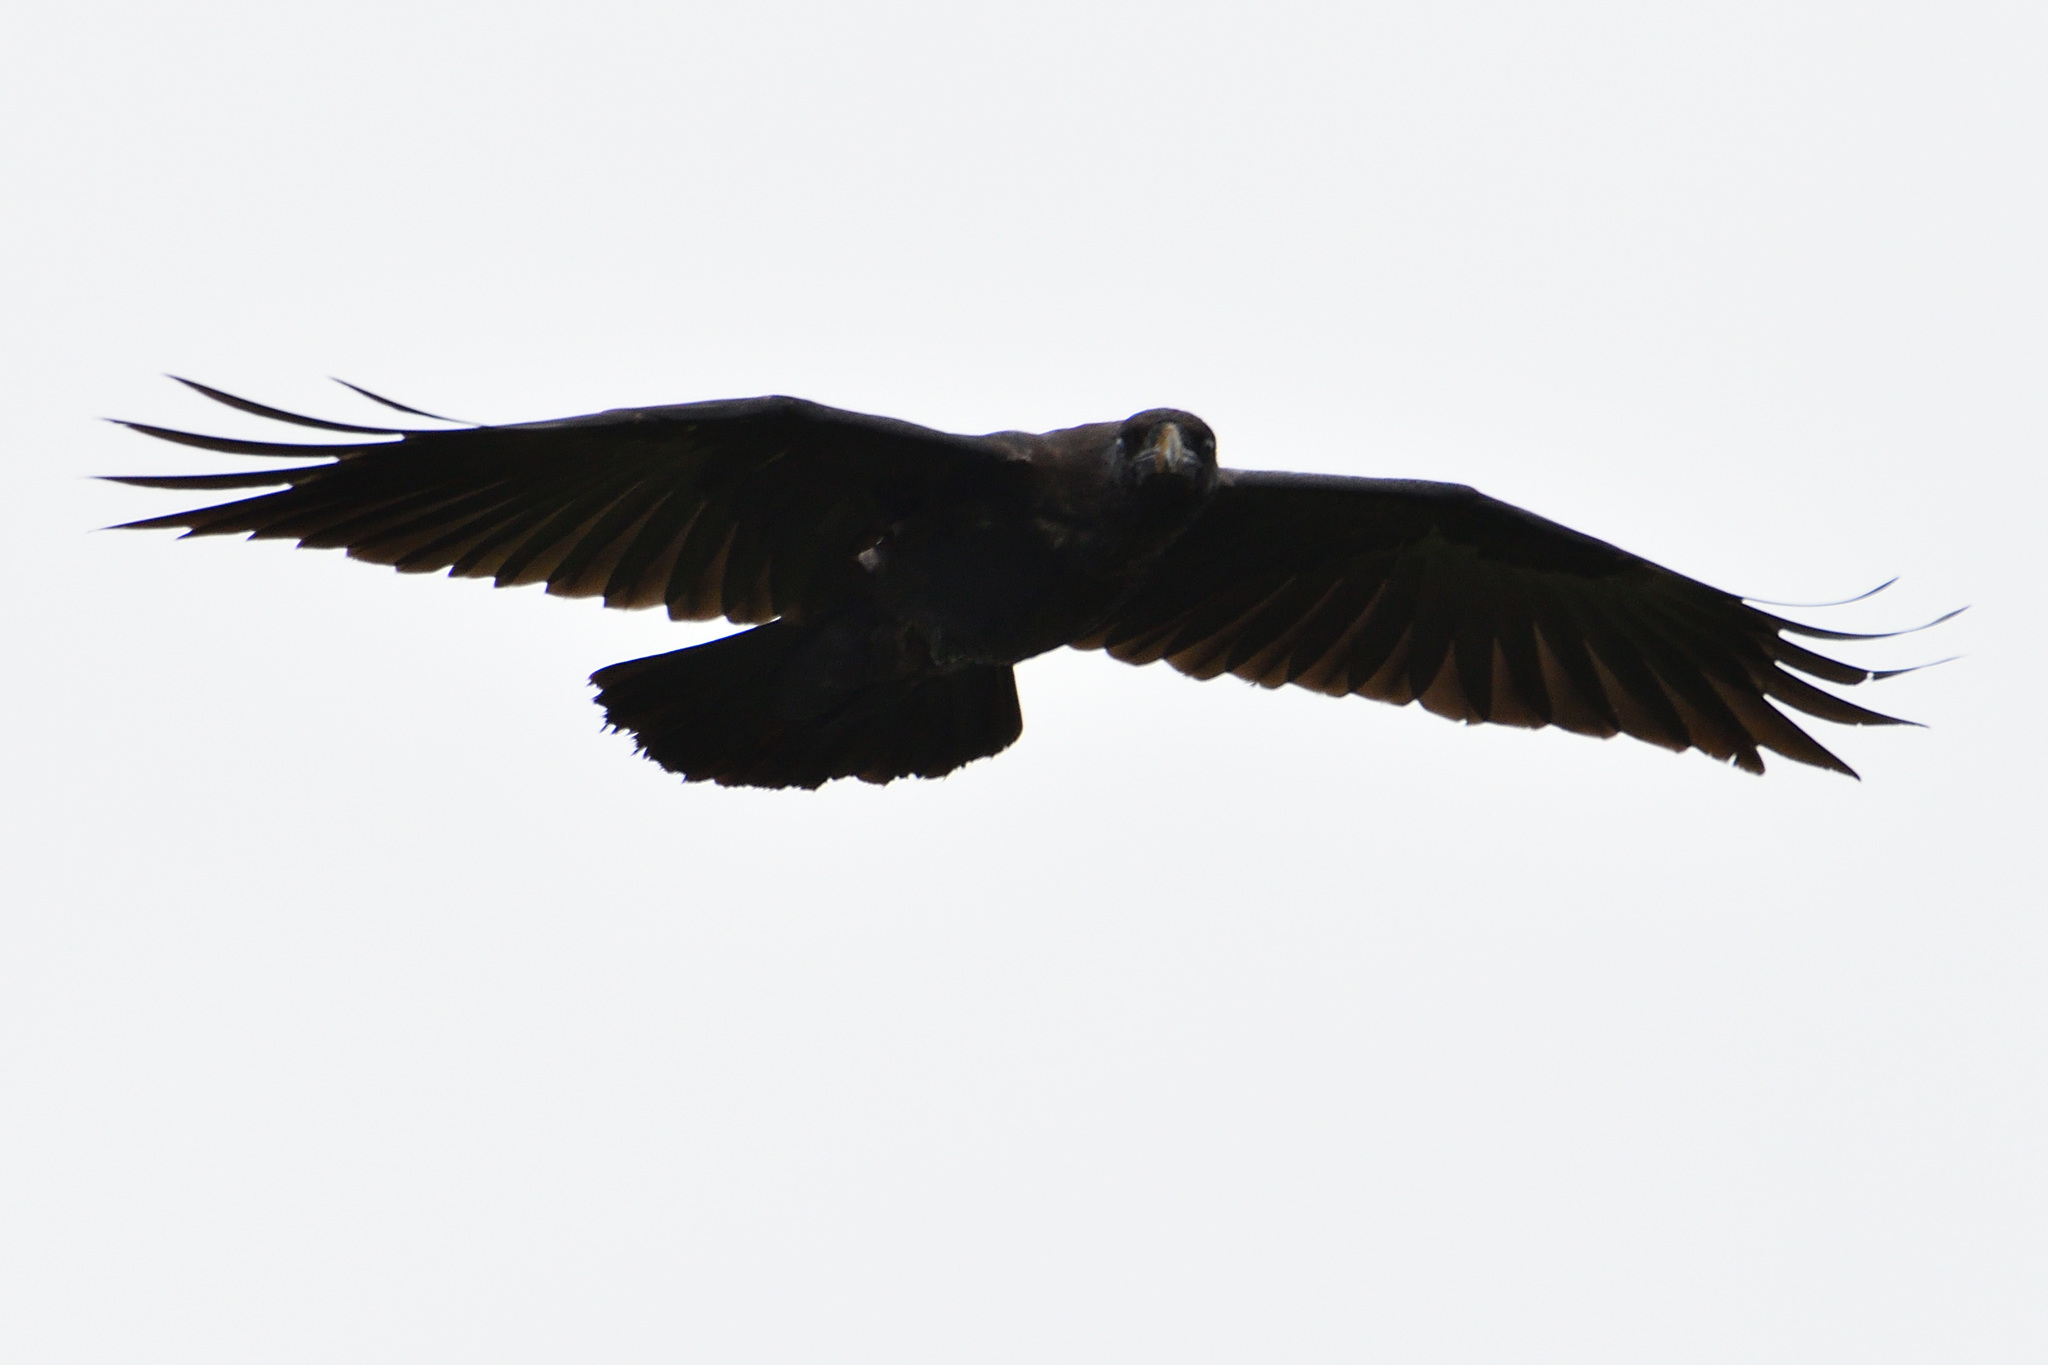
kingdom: Animalia
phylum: Chordata
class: Aves
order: Passeriformes
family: Corvidae
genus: Corvus
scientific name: Corvus corax
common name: Common raven
